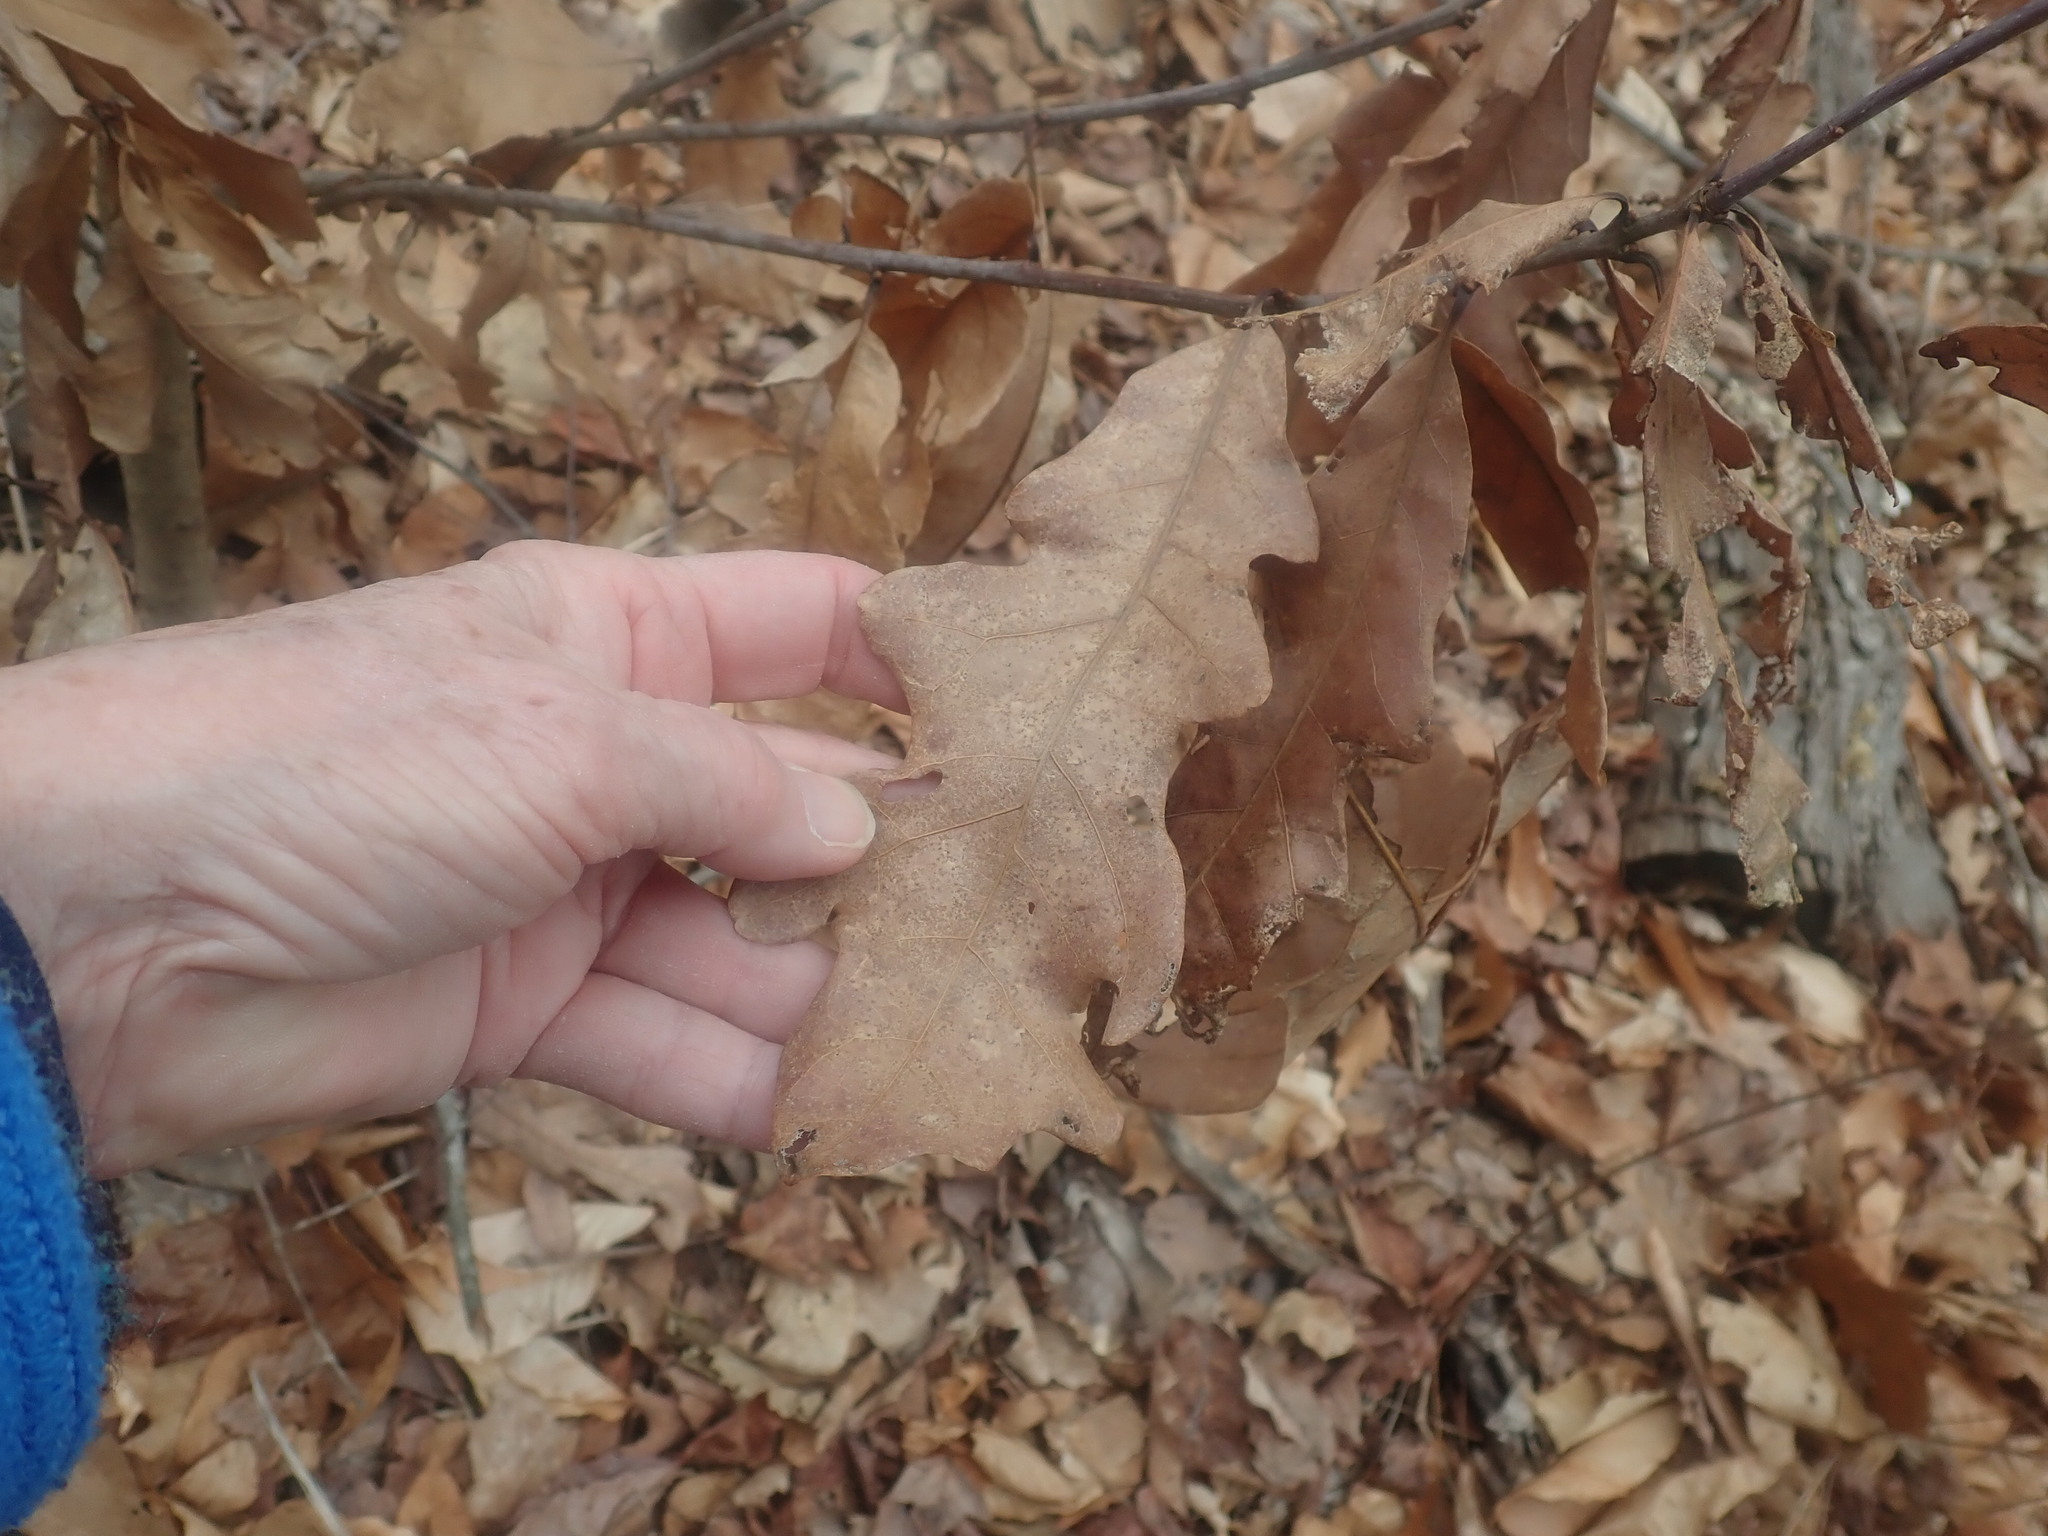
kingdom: Plantae
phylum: Tracheophyta
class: Magnoliopsida
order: Fagales
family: Fagaceae
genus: Quercus
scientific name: Quercus alba
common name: White oak
